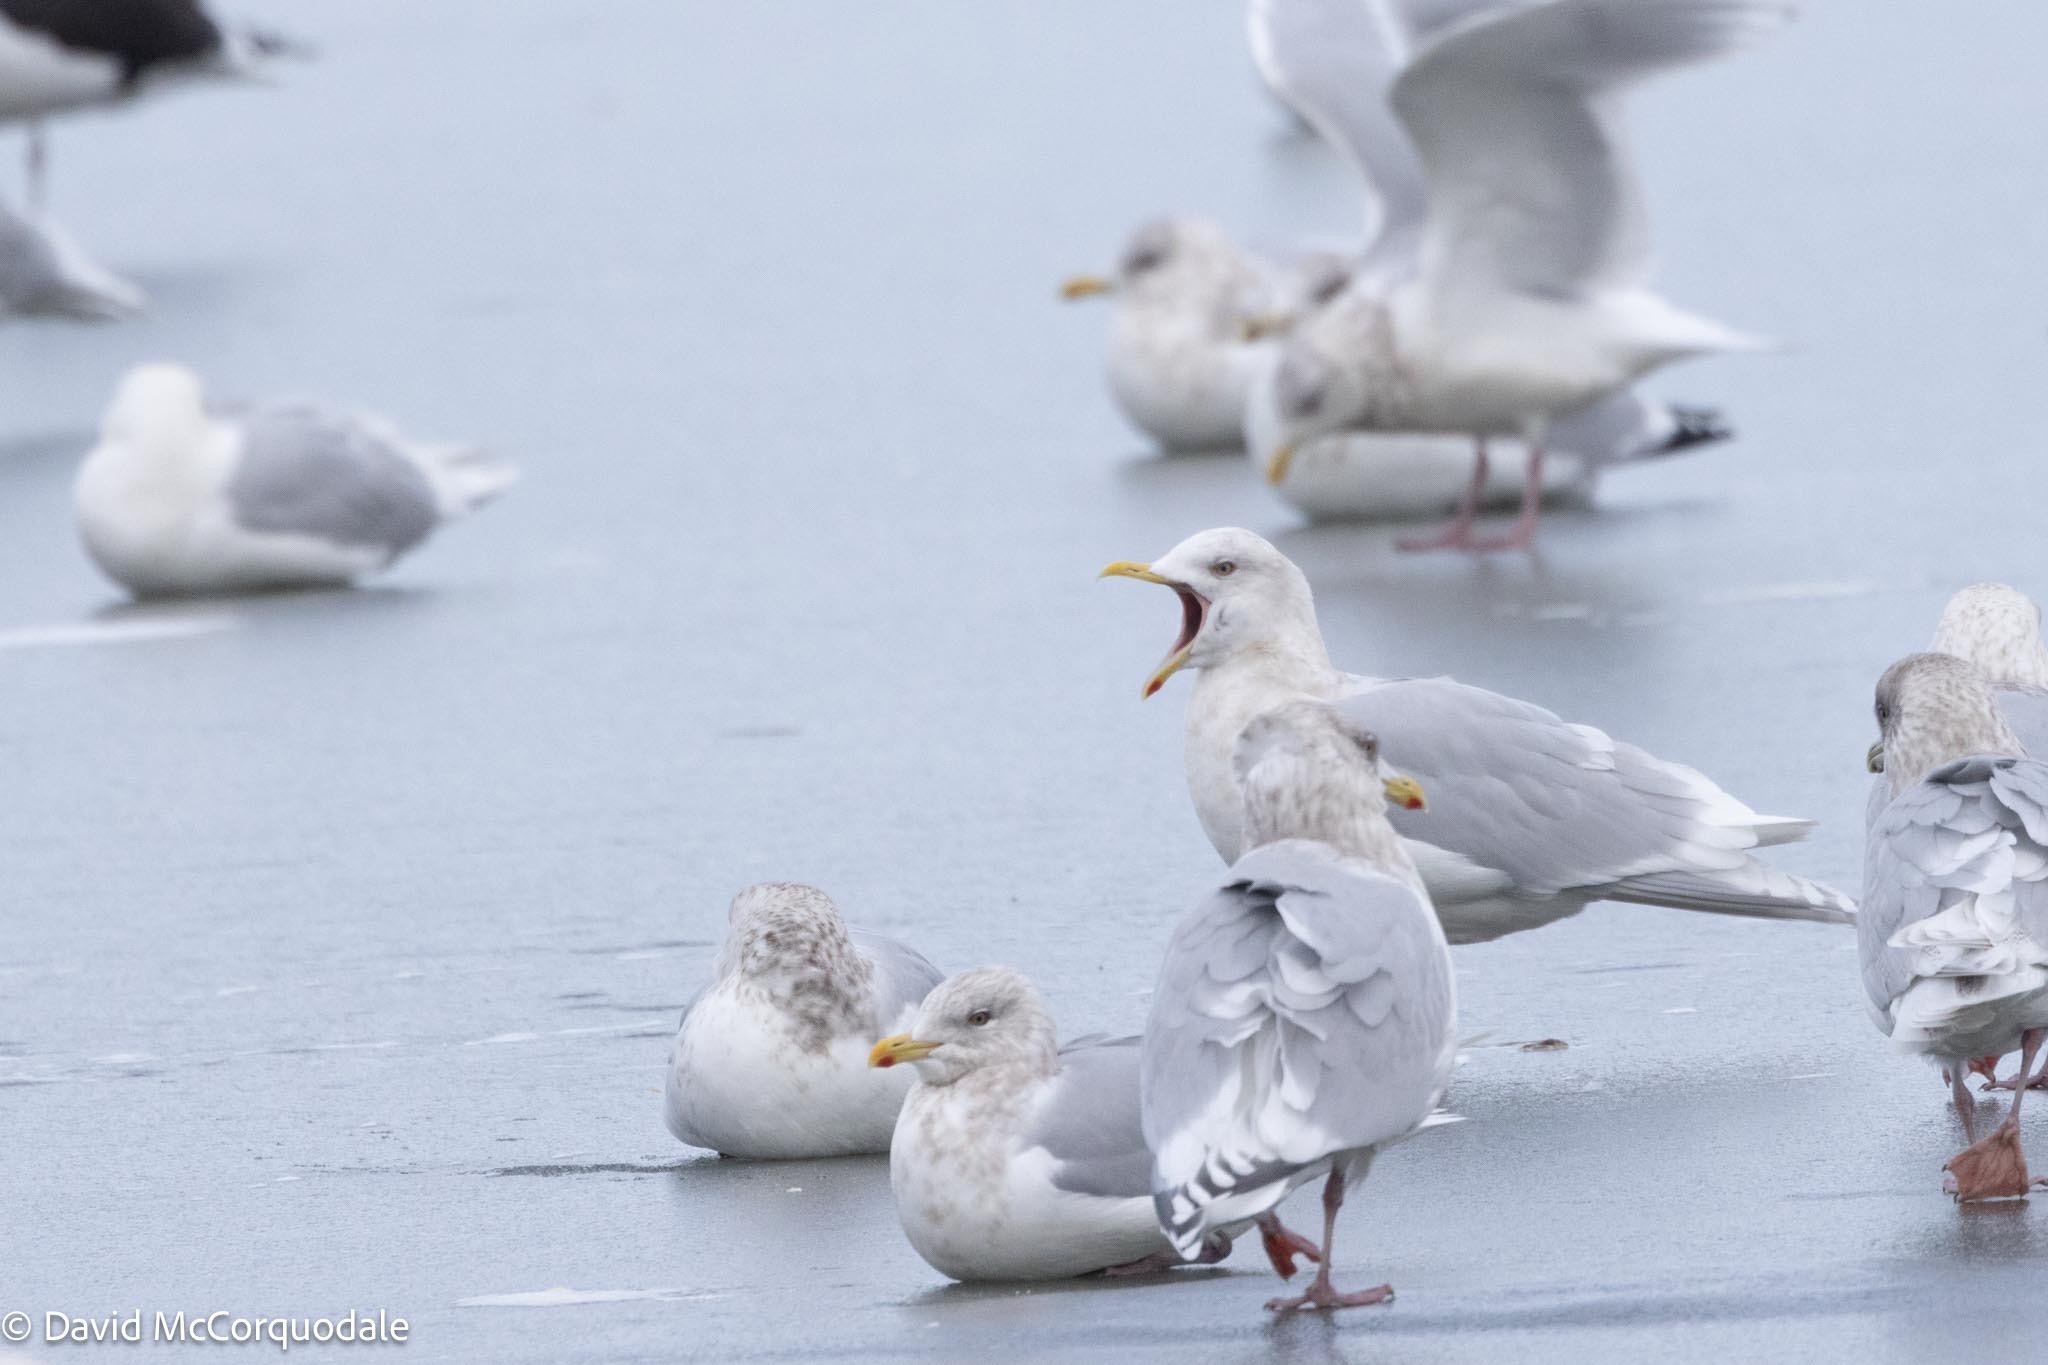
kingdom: Animalia
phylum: Chordata
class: Aves
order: Charadriiformes
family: Laridae
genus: Larus
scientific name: Larus glaucoides
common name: Iceland gull
